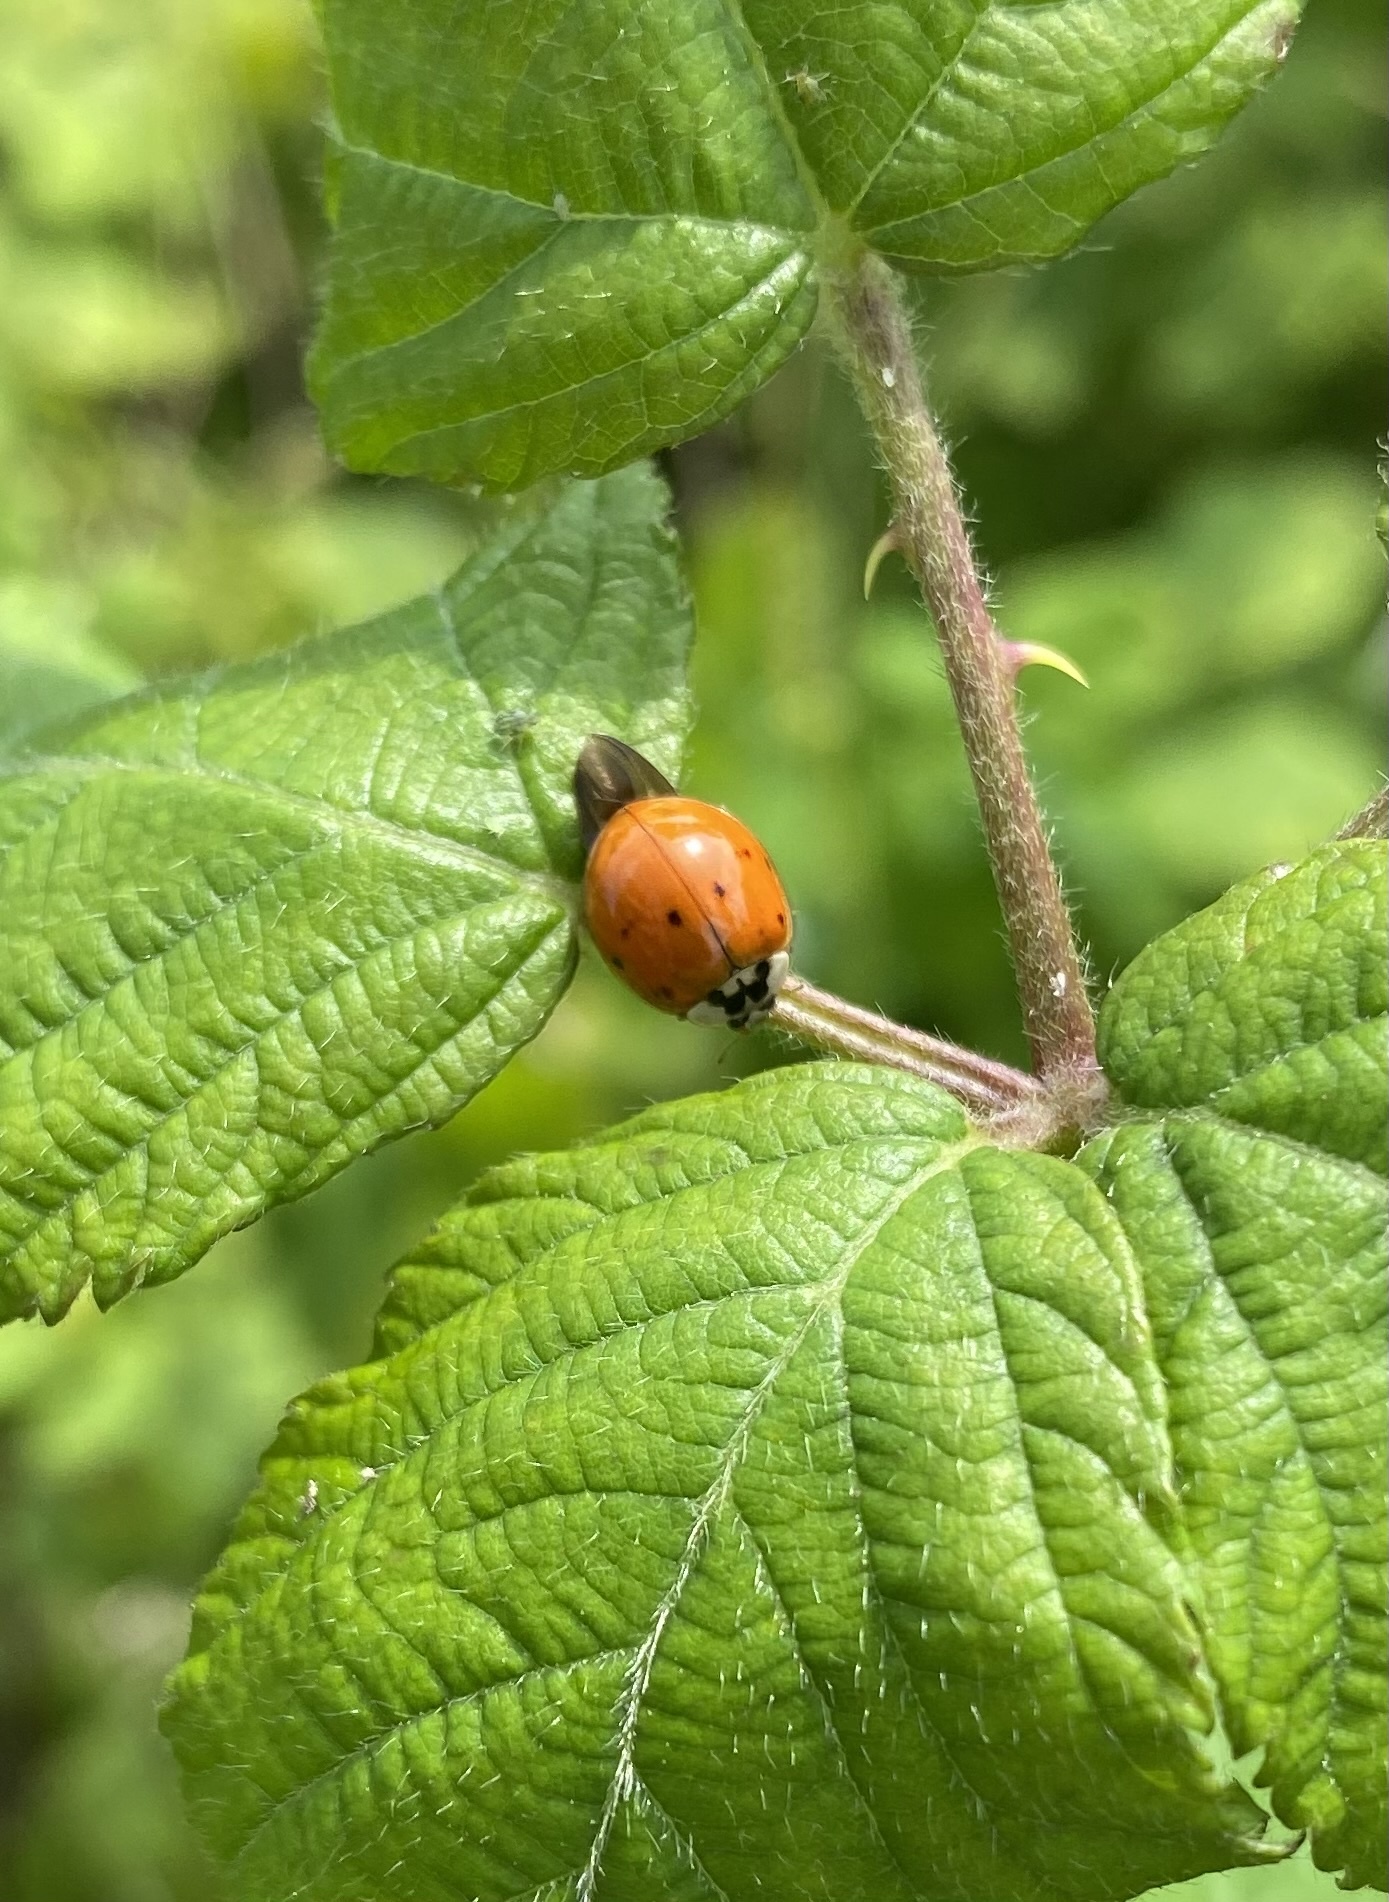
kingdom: Animalia
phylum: Arthropoda
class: Insecta
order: Coleoptera
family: Coccinellidae
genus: Harmonia
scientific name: Harmonia axyridis
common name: Harlequin ladybird
